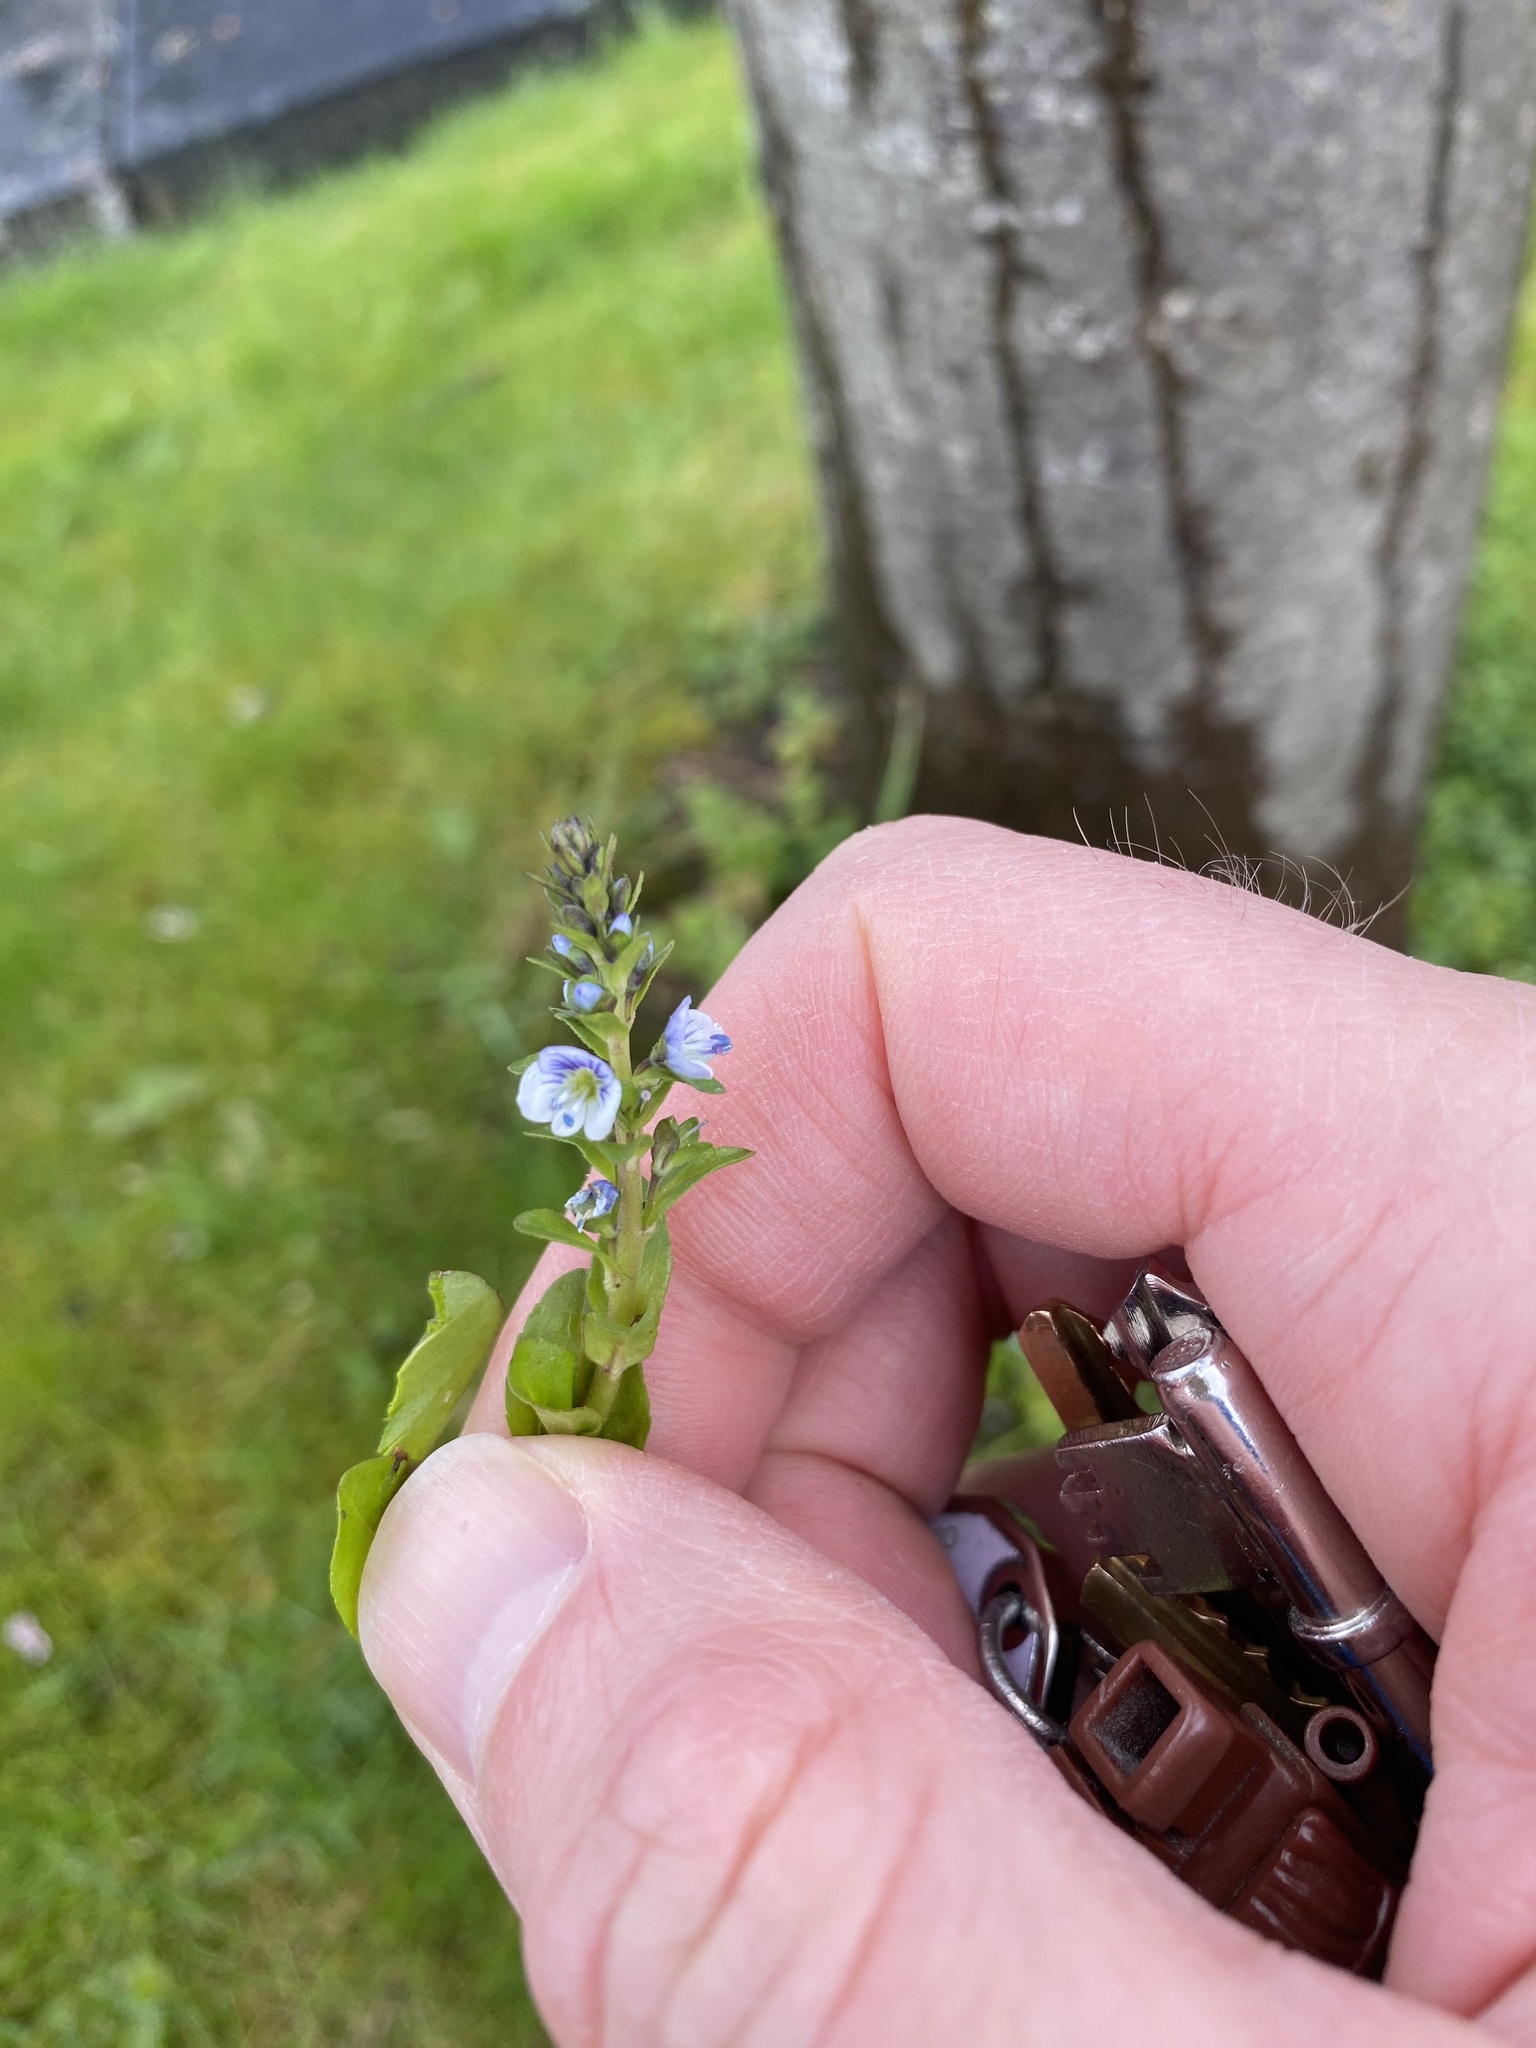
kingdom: Plantae
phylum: Tracheophyta
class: Magnoliopsida
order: Lamiales
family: Plantaginaceae
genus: Veronica
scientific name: Veronica serpyllifolia
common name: Thyme-leaved speedwell
